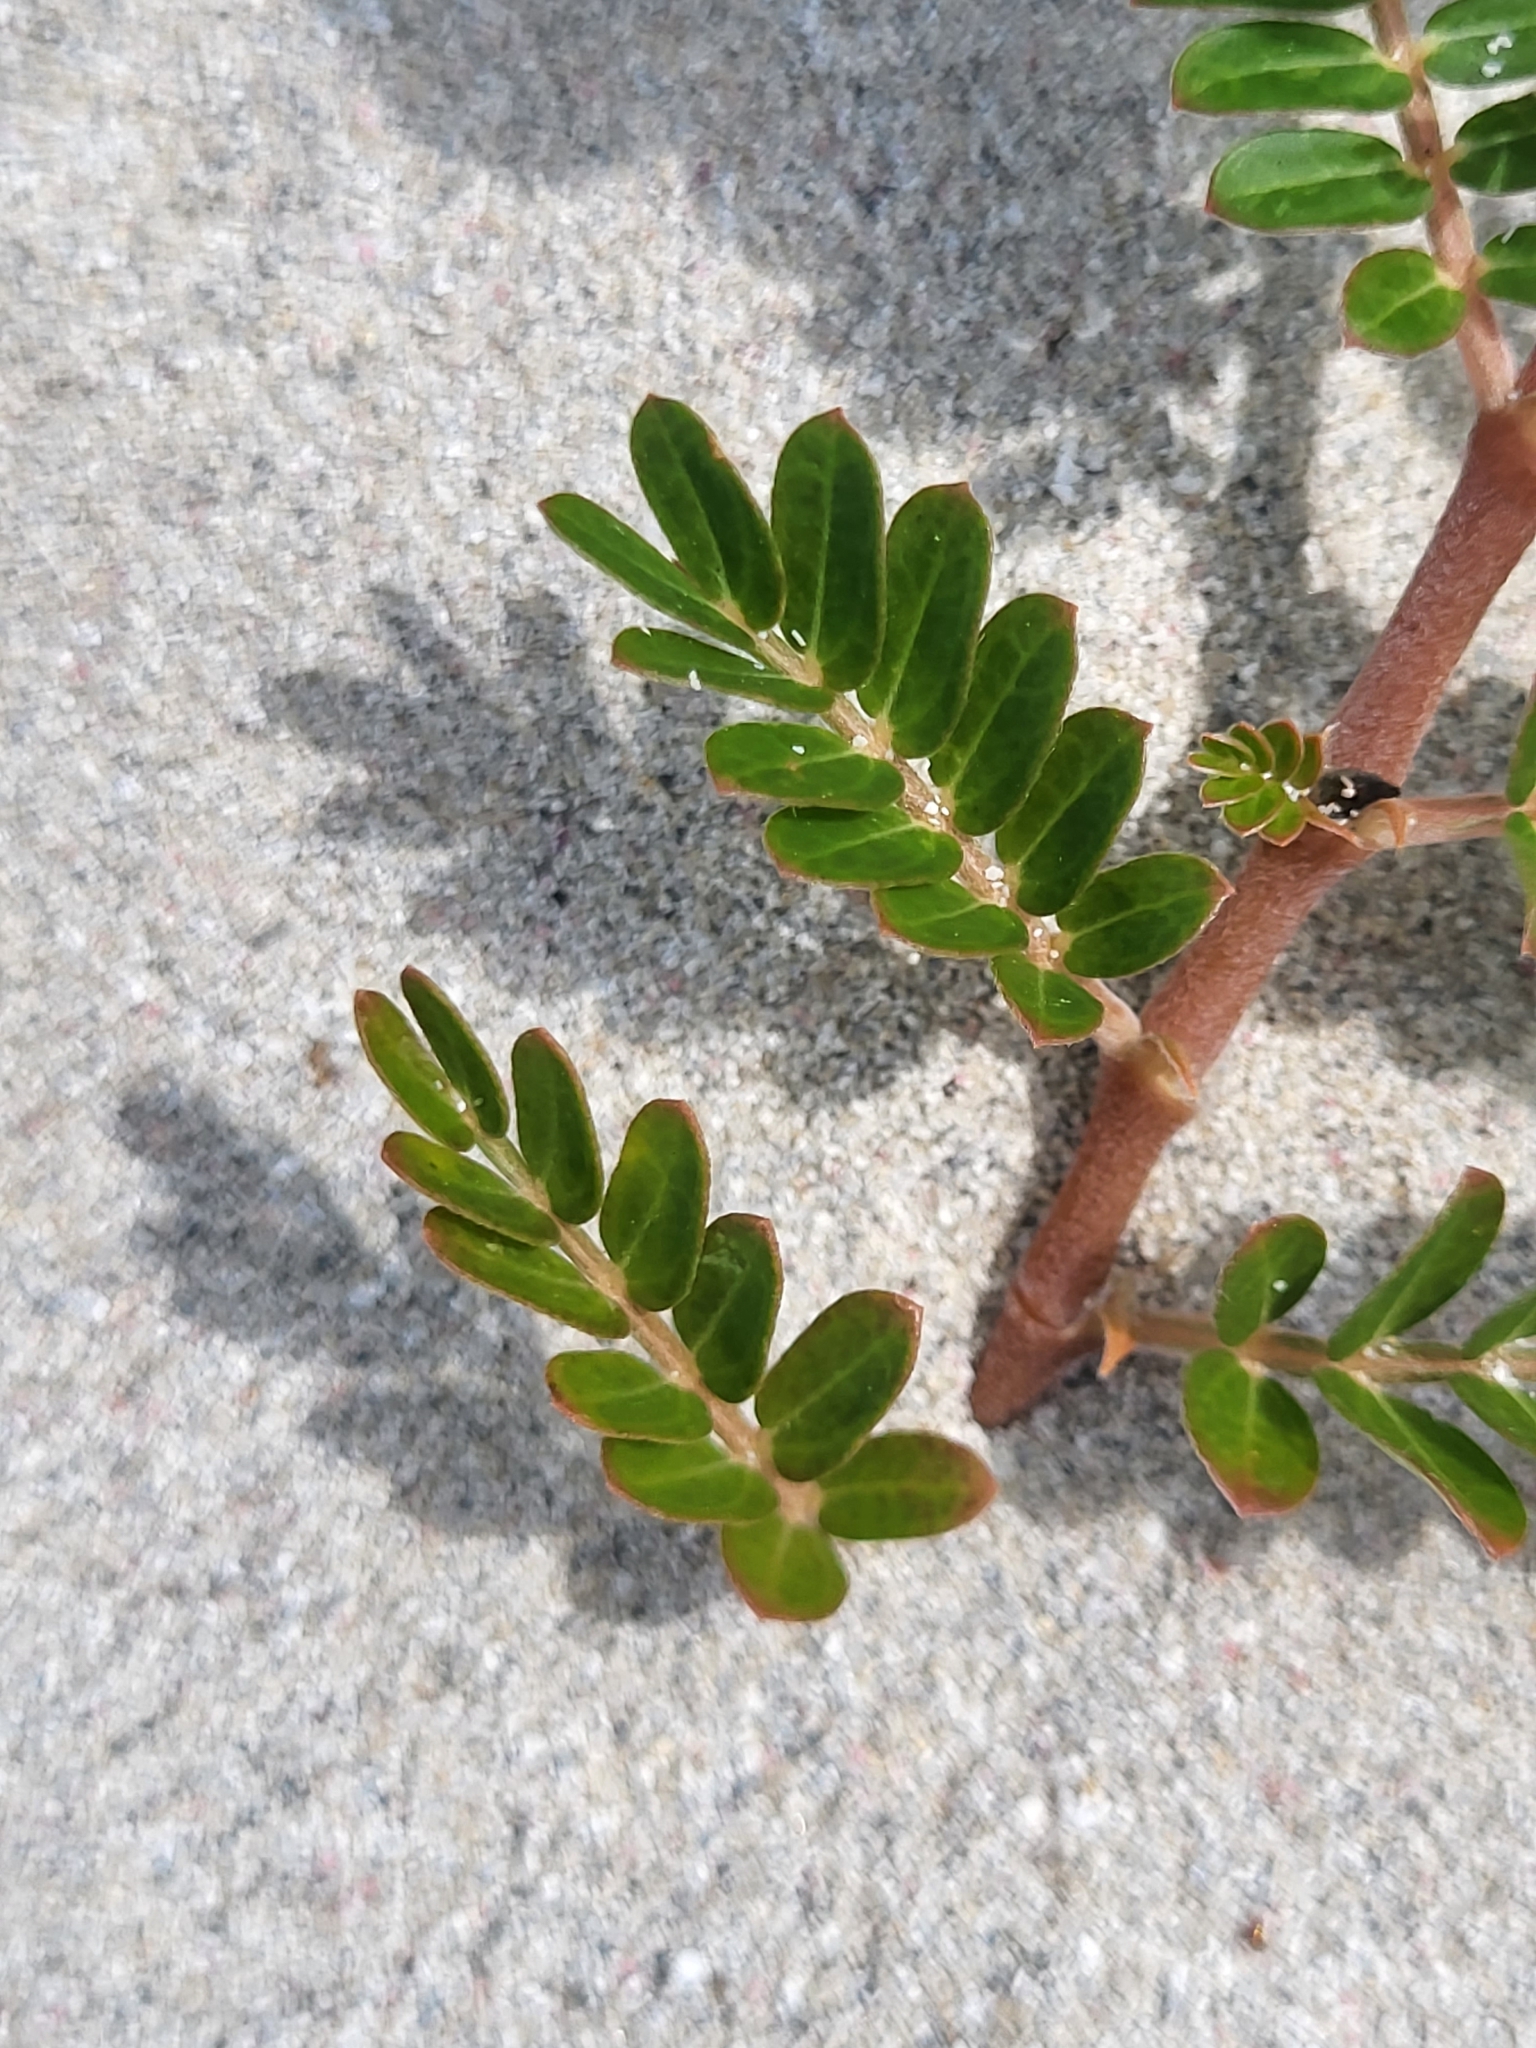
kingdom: Plantae
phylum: Tracheophyta
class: Magnoliopsida
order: Zygophyllales
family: Zygophyllaceae
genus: Tribulus
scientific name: Tribulus cistoides
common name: Jamaican feverplant
